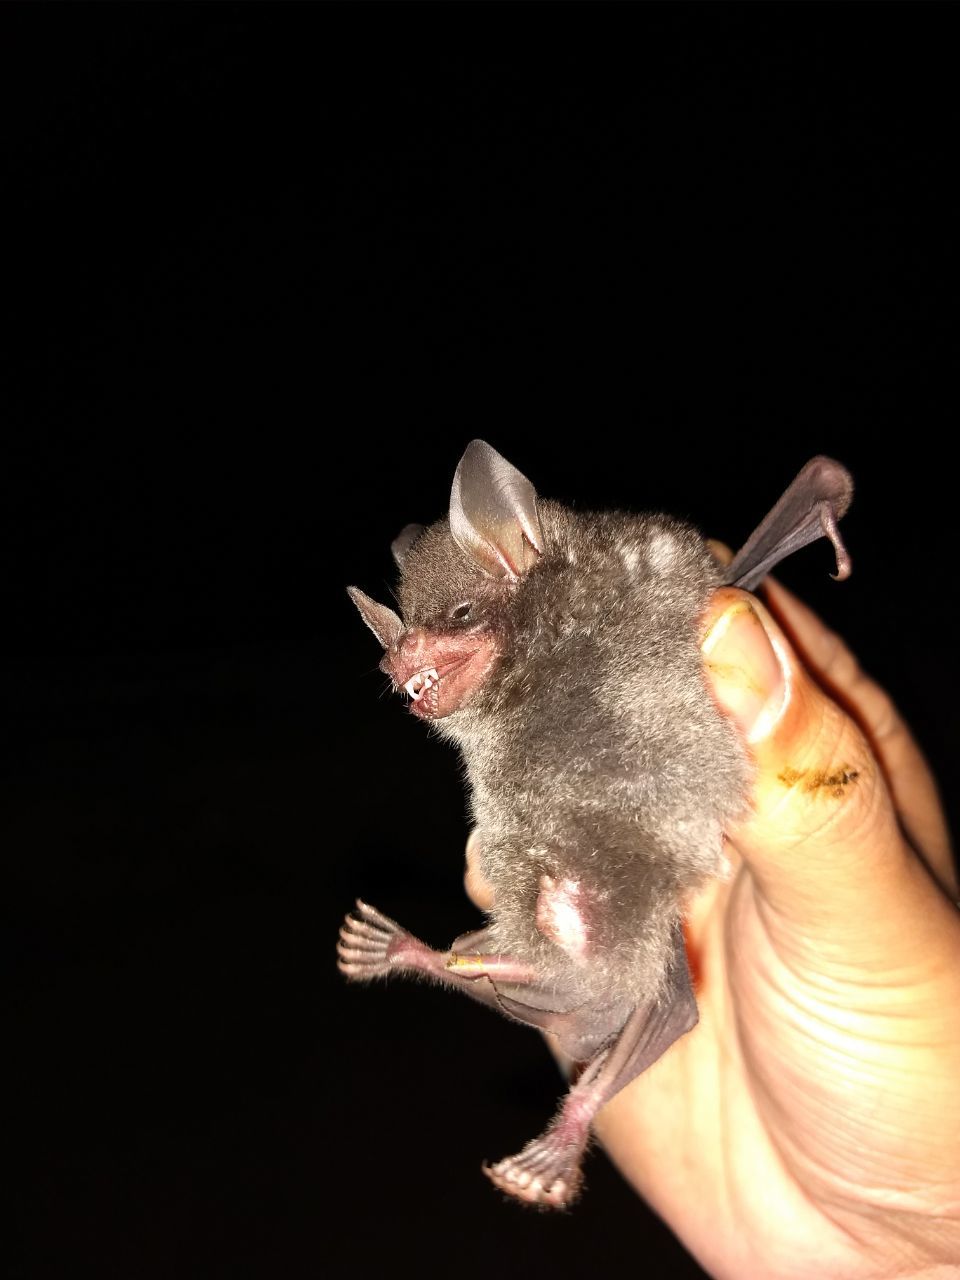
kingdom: Animalia
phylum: Chordata
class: Mammalia
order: Chiroptera
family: Phyllostomidae
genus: Carollia
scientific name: Carollia sowelli
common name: Sowell’s short-tailed bat
